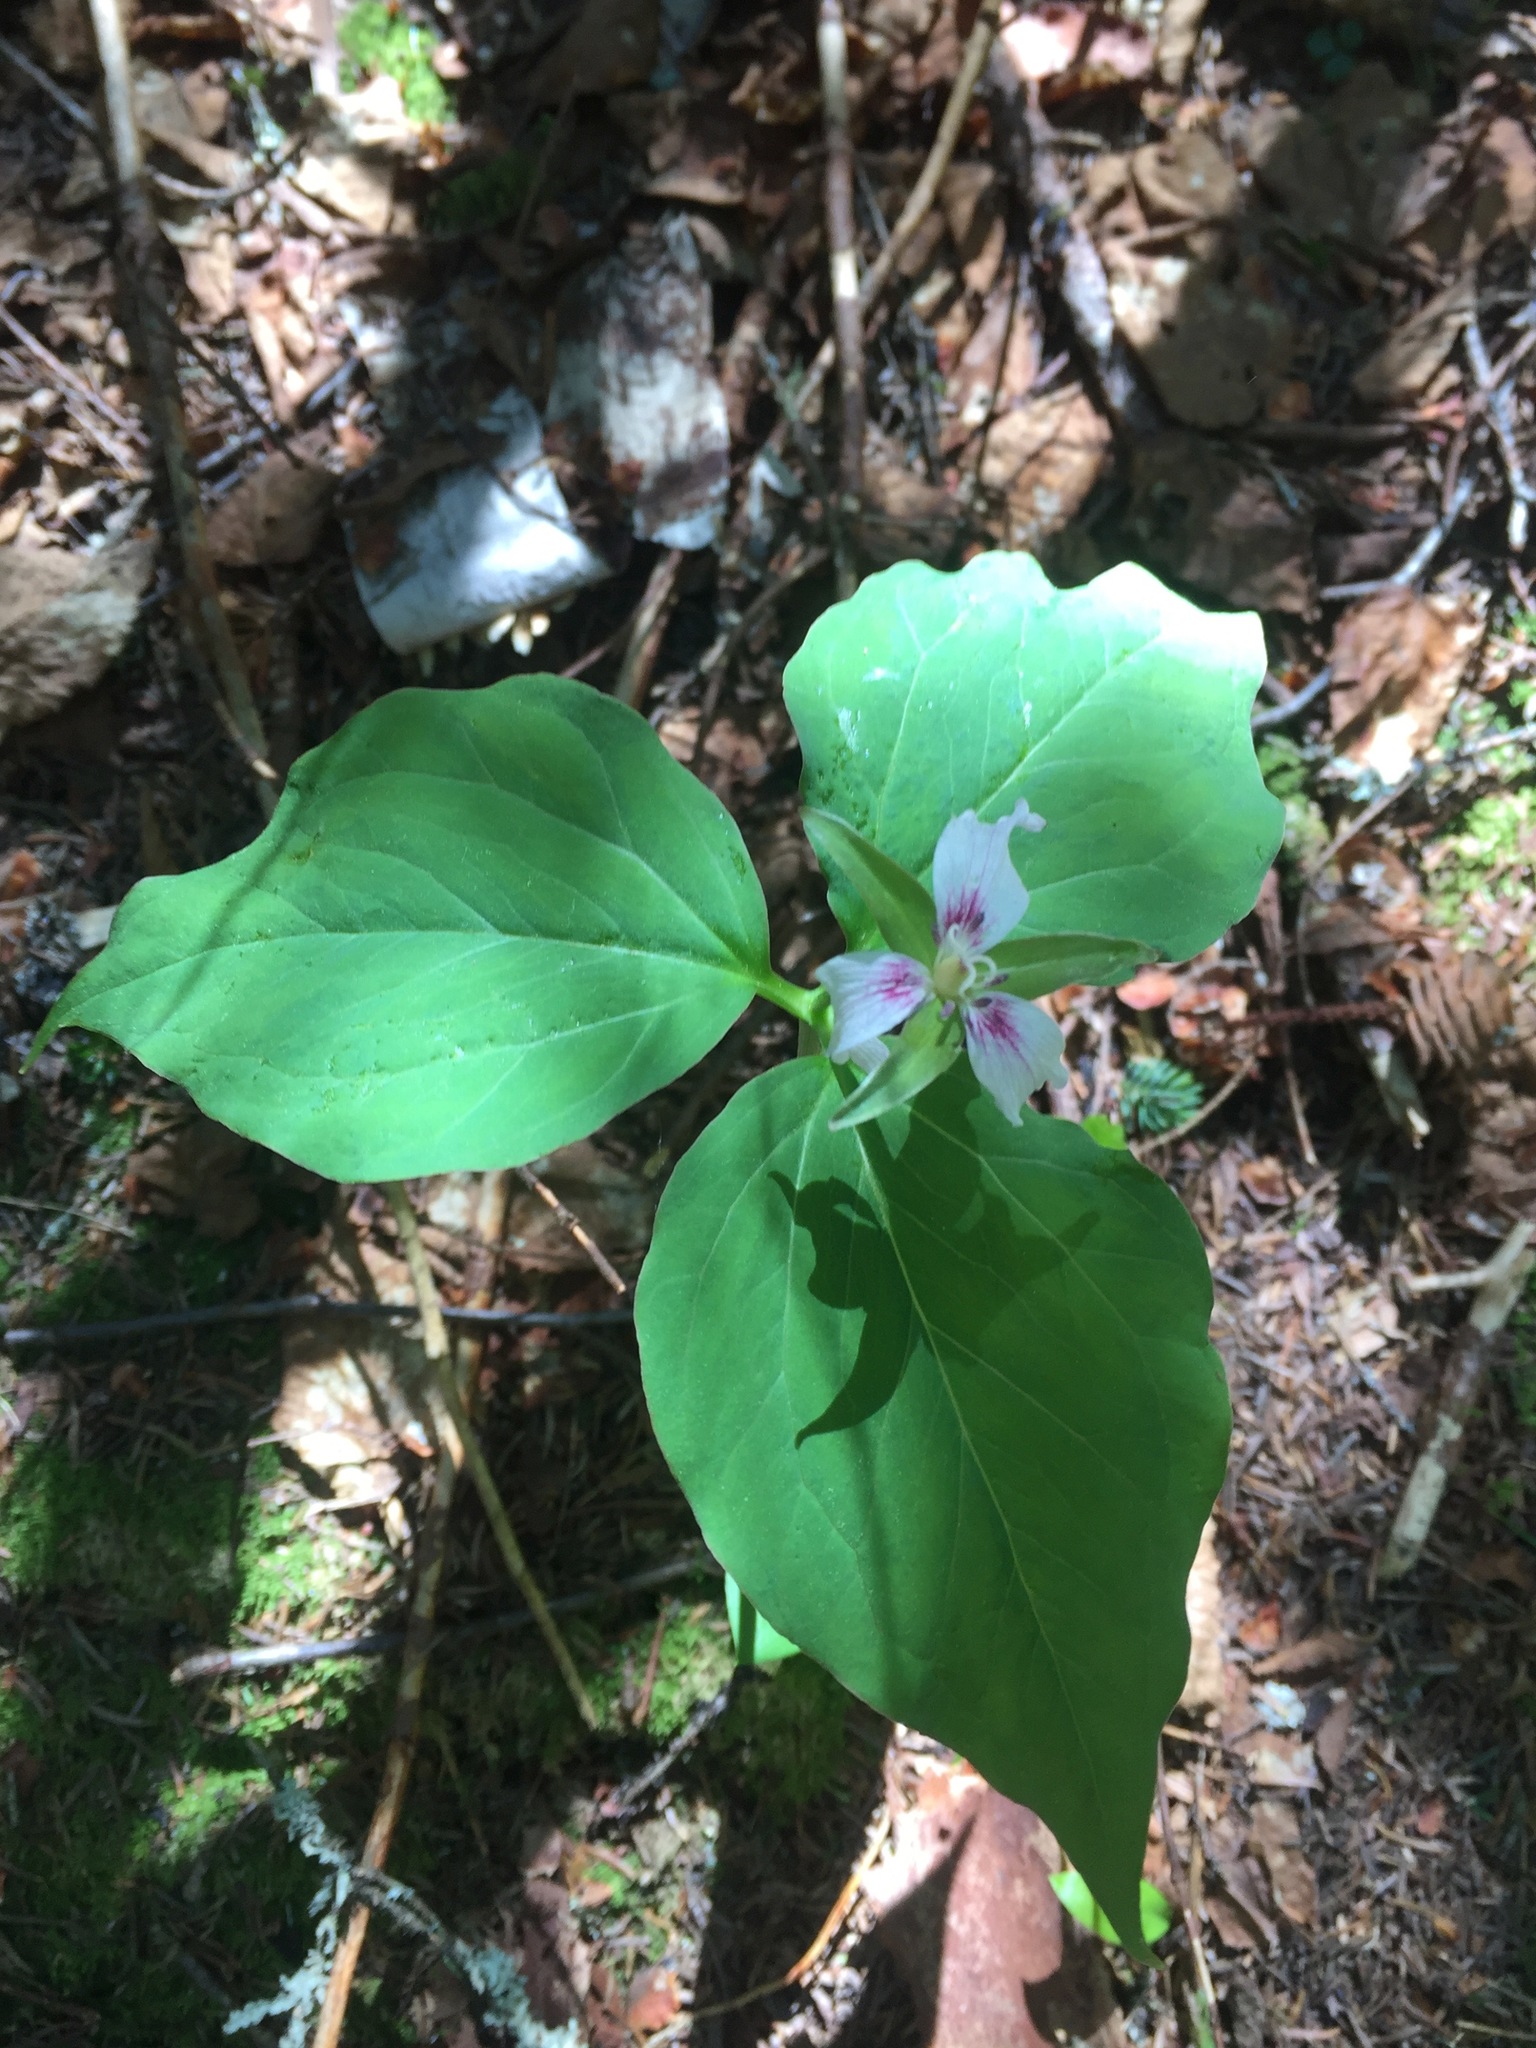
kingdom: Plantae
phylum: Tracheophyta
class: Liliopsida
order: Liliales
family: Melanthiaceae
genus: Trillium
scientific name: Trillium undulatum
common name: Paint trillium
